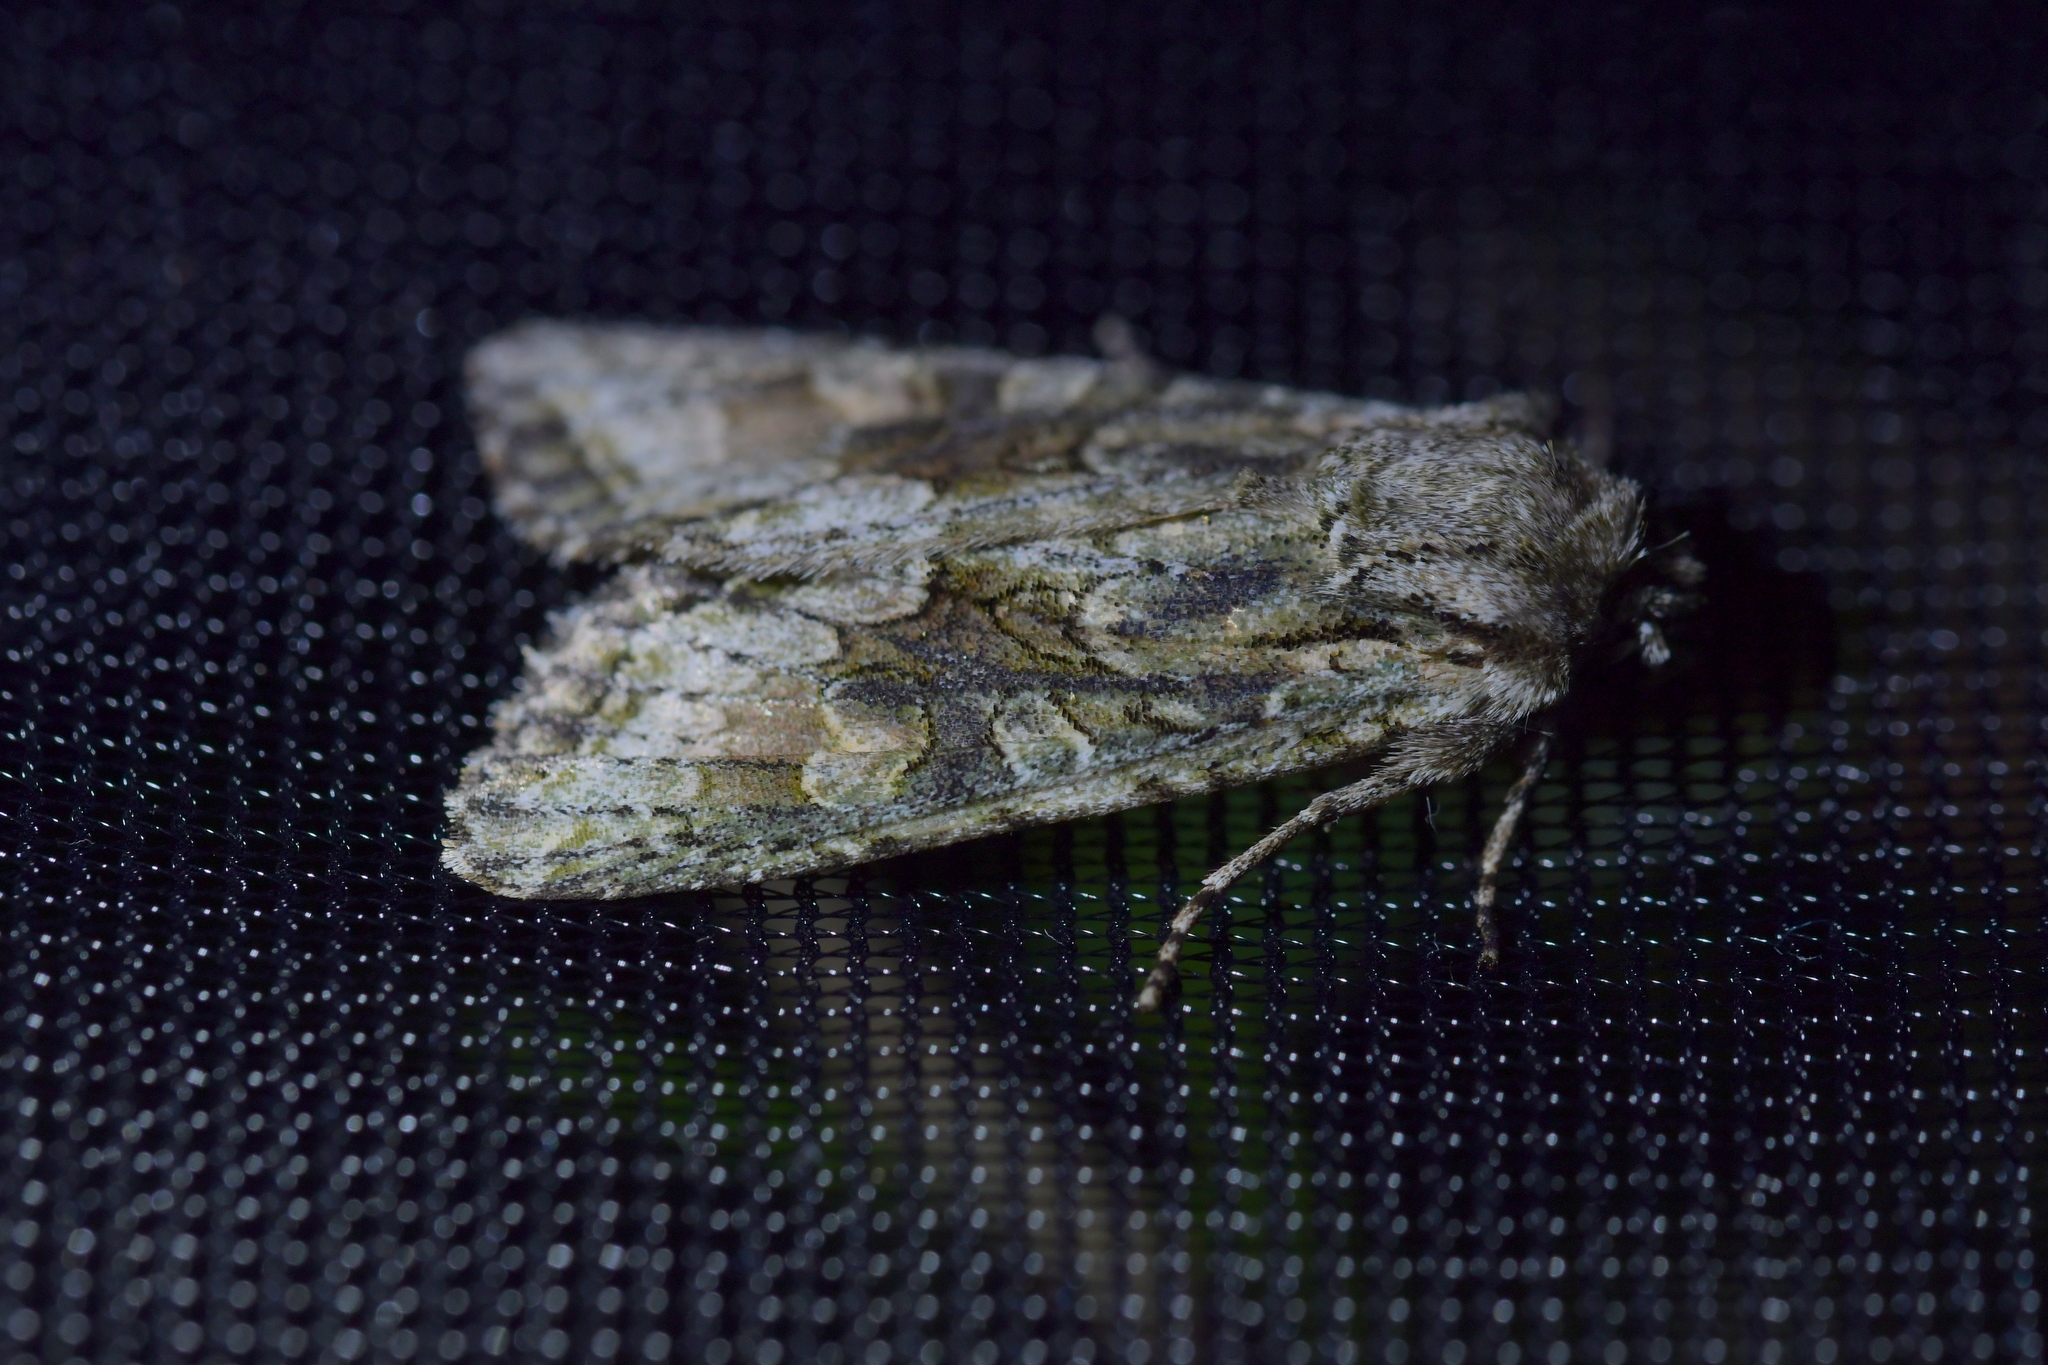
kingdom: Animalia
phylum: Arthropoda
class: Insecta
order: Lepidoptera
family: Noctuidae
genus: Ichneutica
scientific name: Ichneutica mutans
